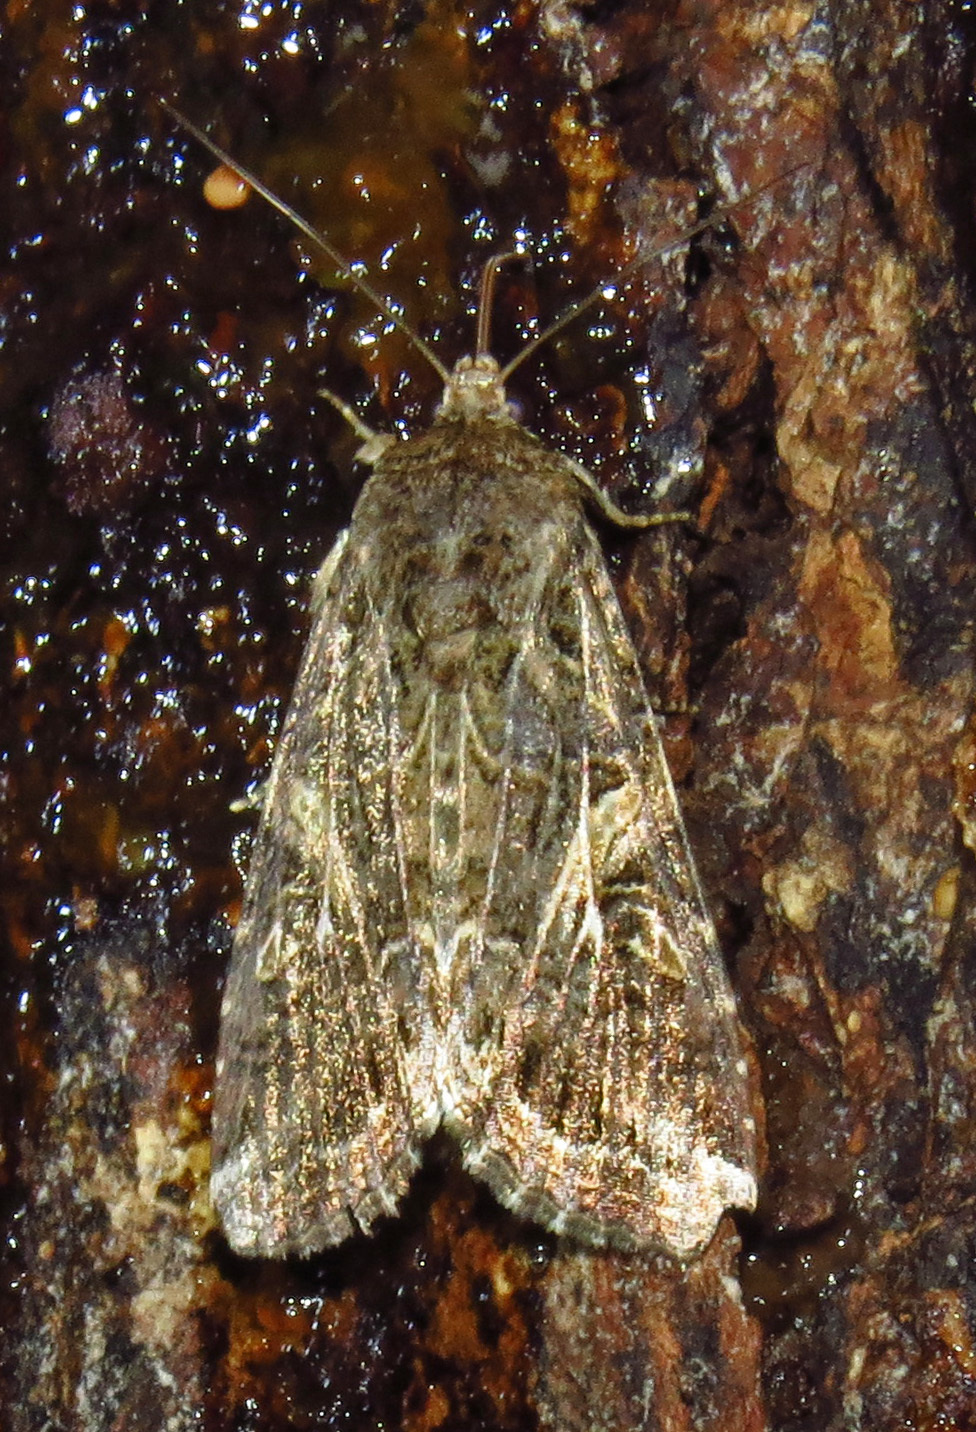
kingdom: Animalia
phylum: Arthropoda
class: Insecta
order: Lepidoptera
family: Noctuidae
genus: Spodoptera
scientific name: Spodoptera ornithogalli
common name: Yellow-striped armyworm
